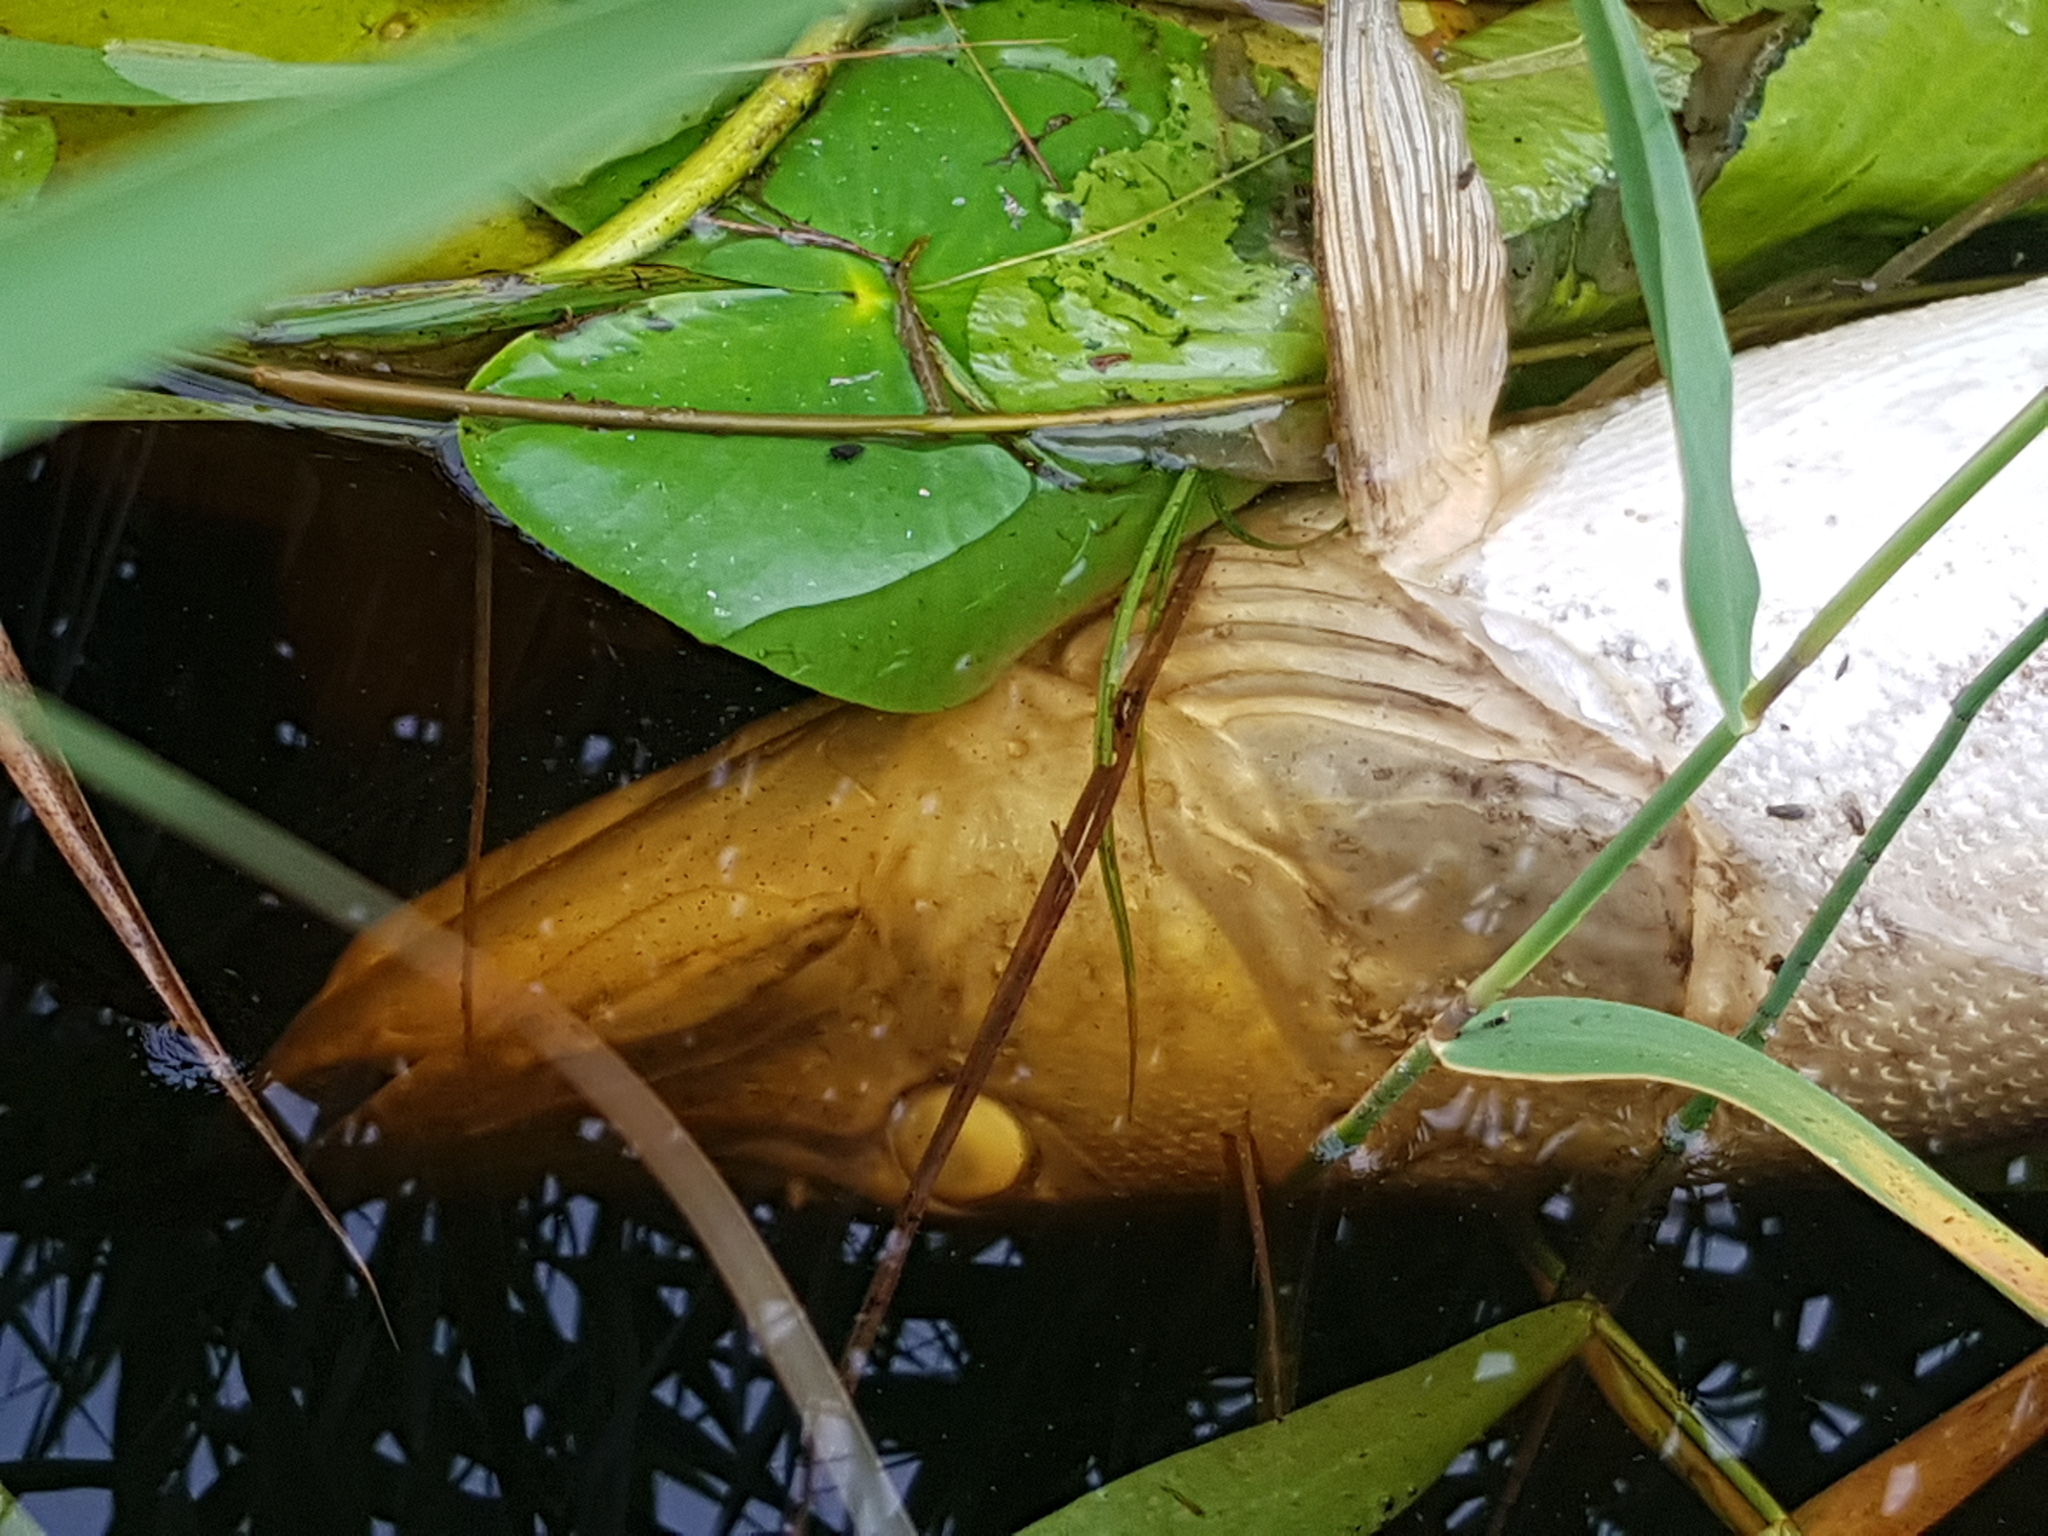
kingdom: Animalia
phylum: Chordata
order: Esociformes
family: Esocidae
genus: Esox
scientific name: Esox lucius
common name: Northern pike
